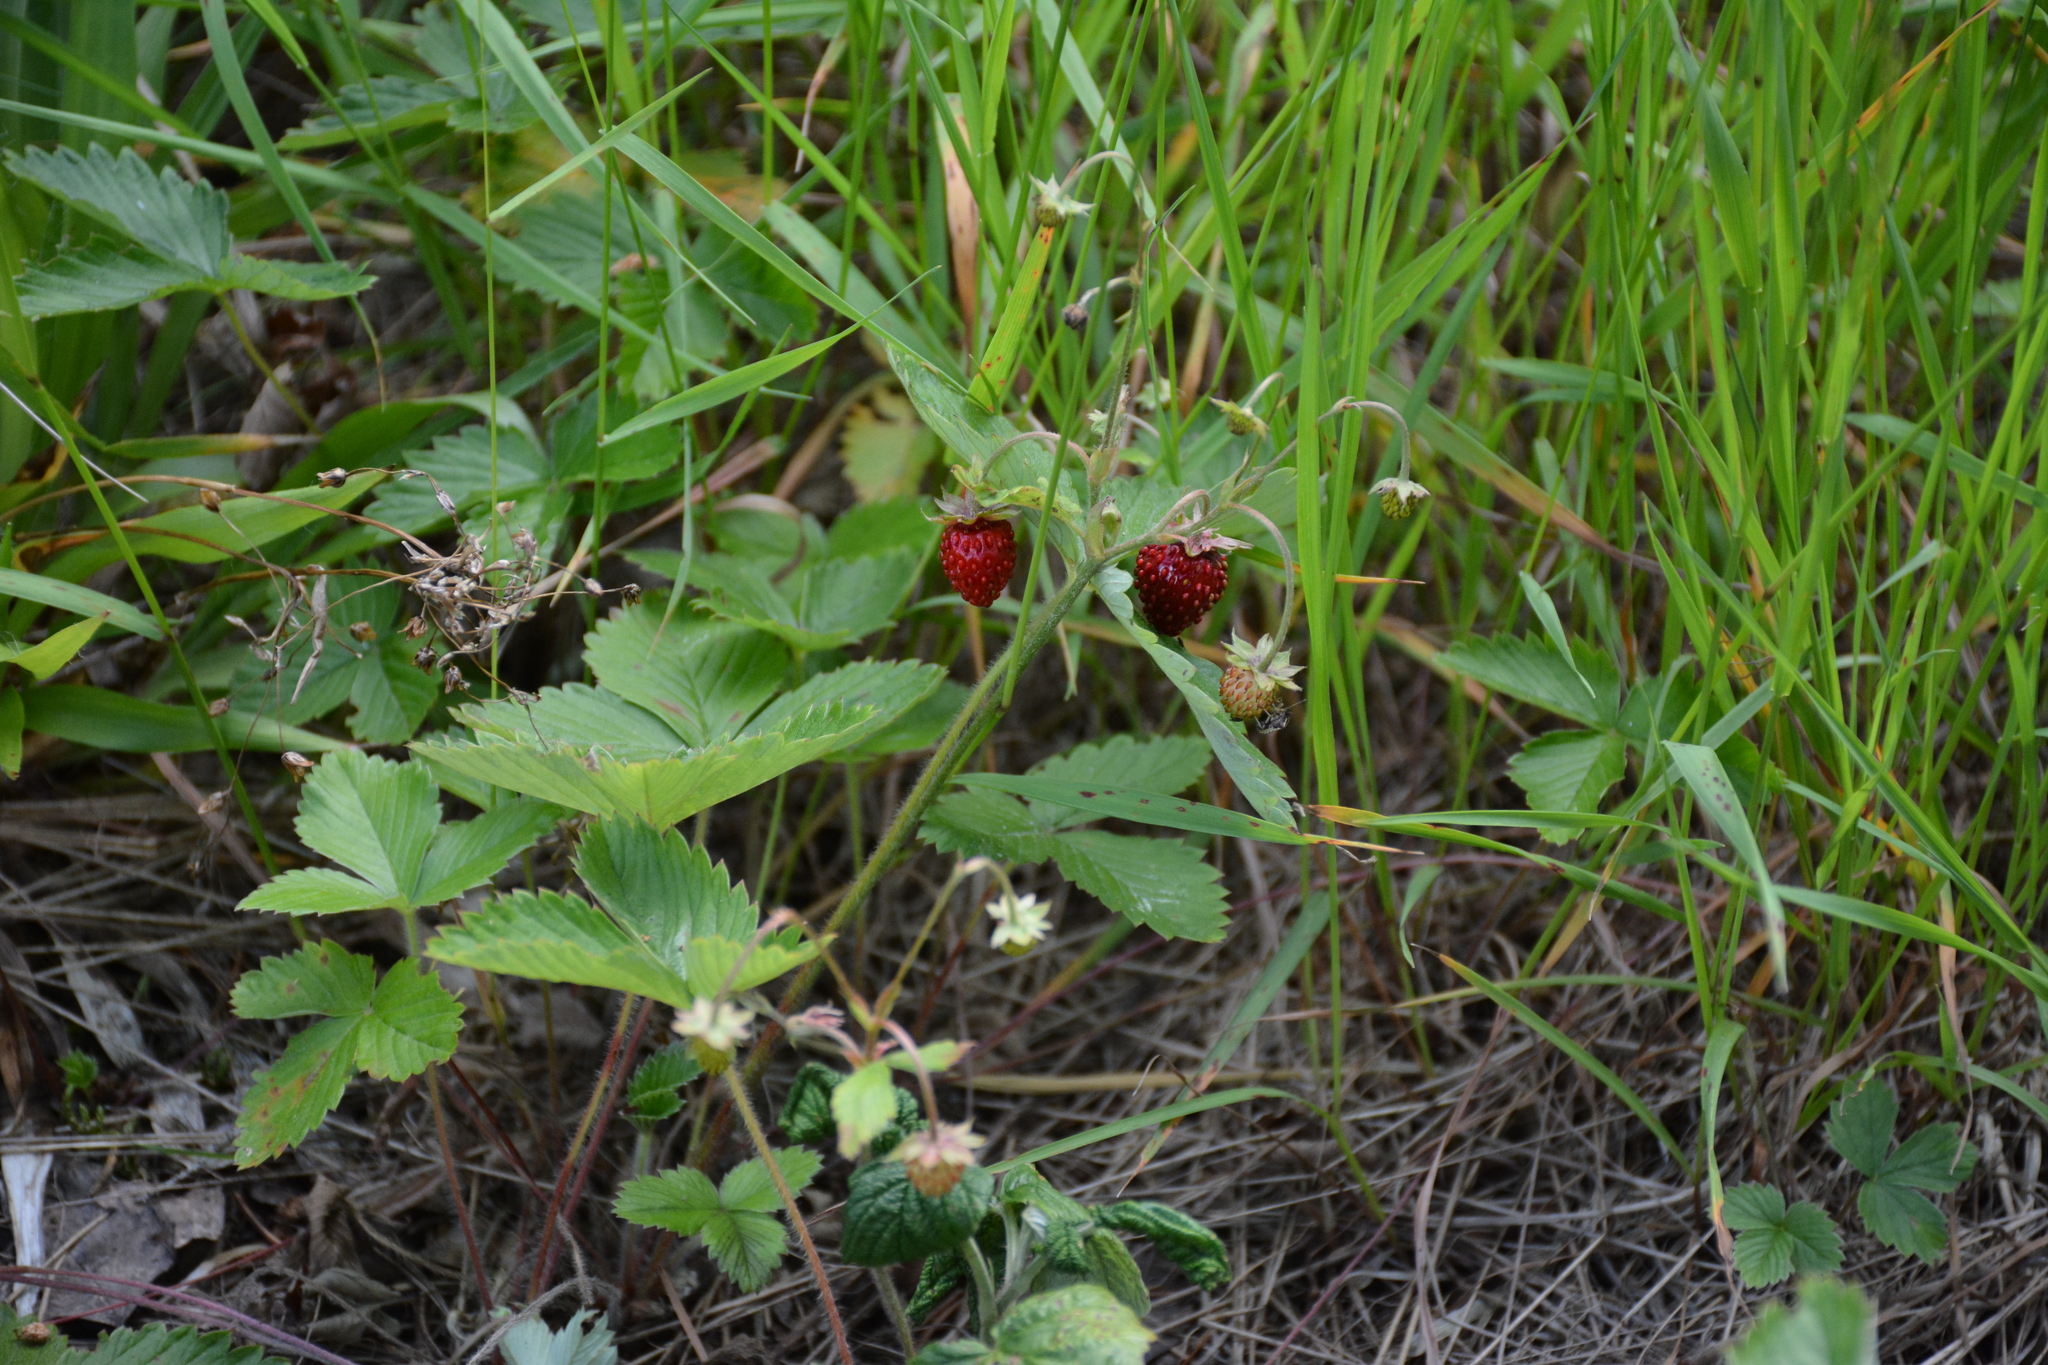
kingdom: Plantae
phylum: Tracheophyta
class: Magnoliopsida
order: Rosales
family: Rosaceae
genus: Fragaria
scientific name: Fragaria vesca
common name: Wild strawberry
